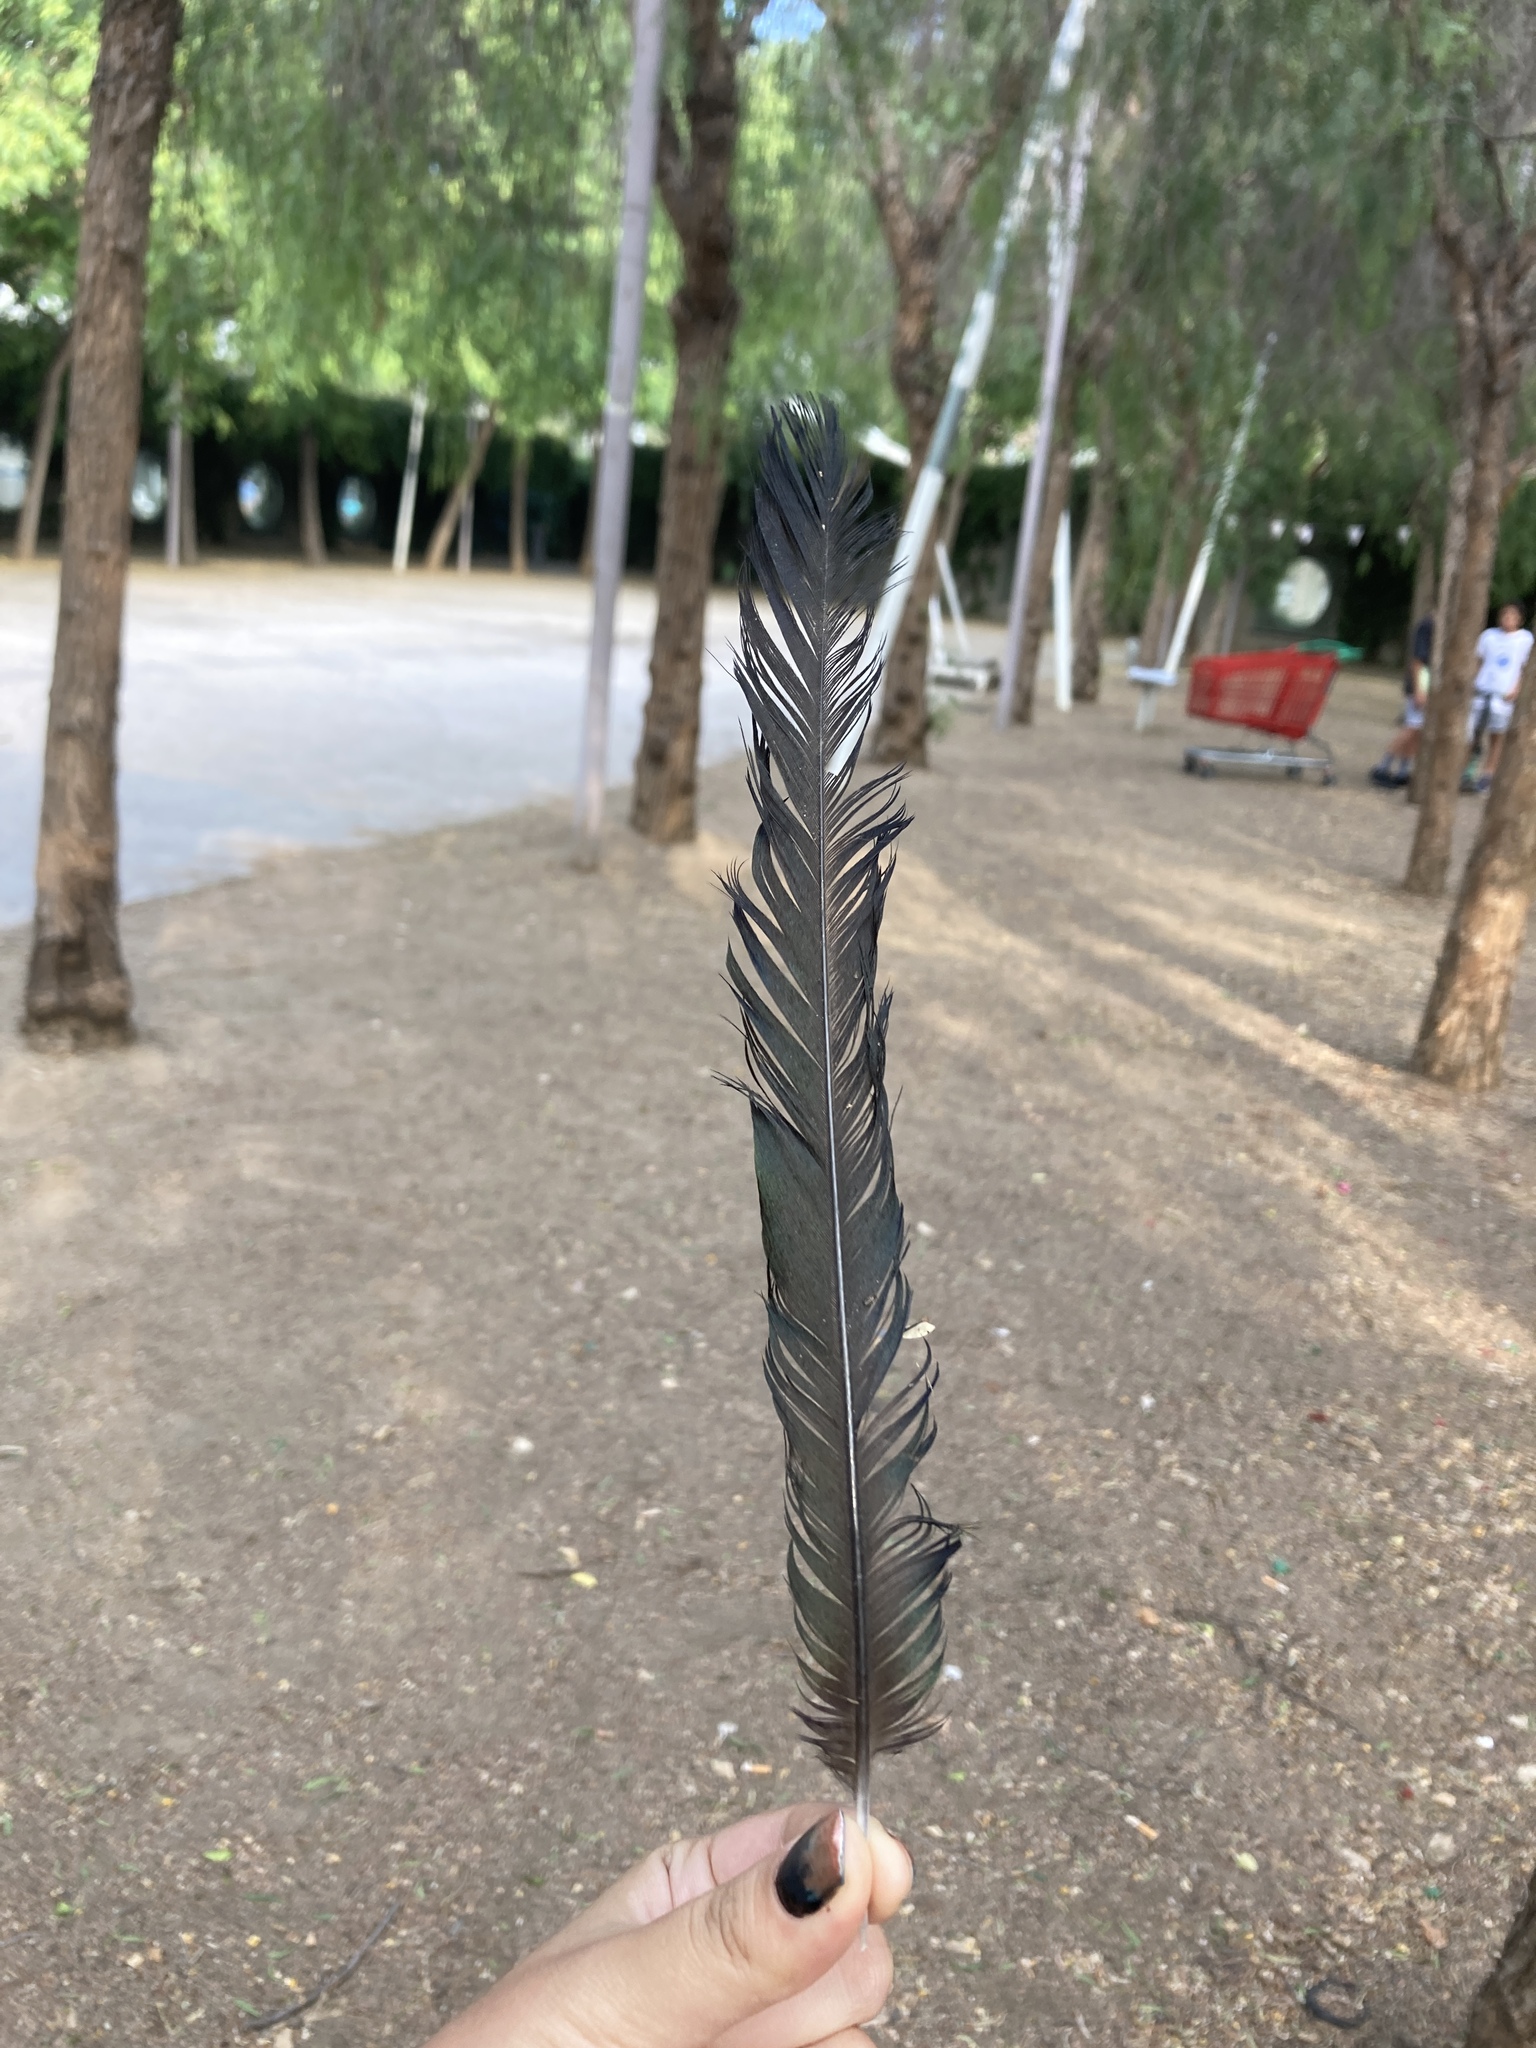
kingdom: Animalia
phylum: Chordata
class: Aves
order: Passeriformes
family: Corvidae
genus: Pica
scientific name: Pica pica
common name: Eurasian magpie
